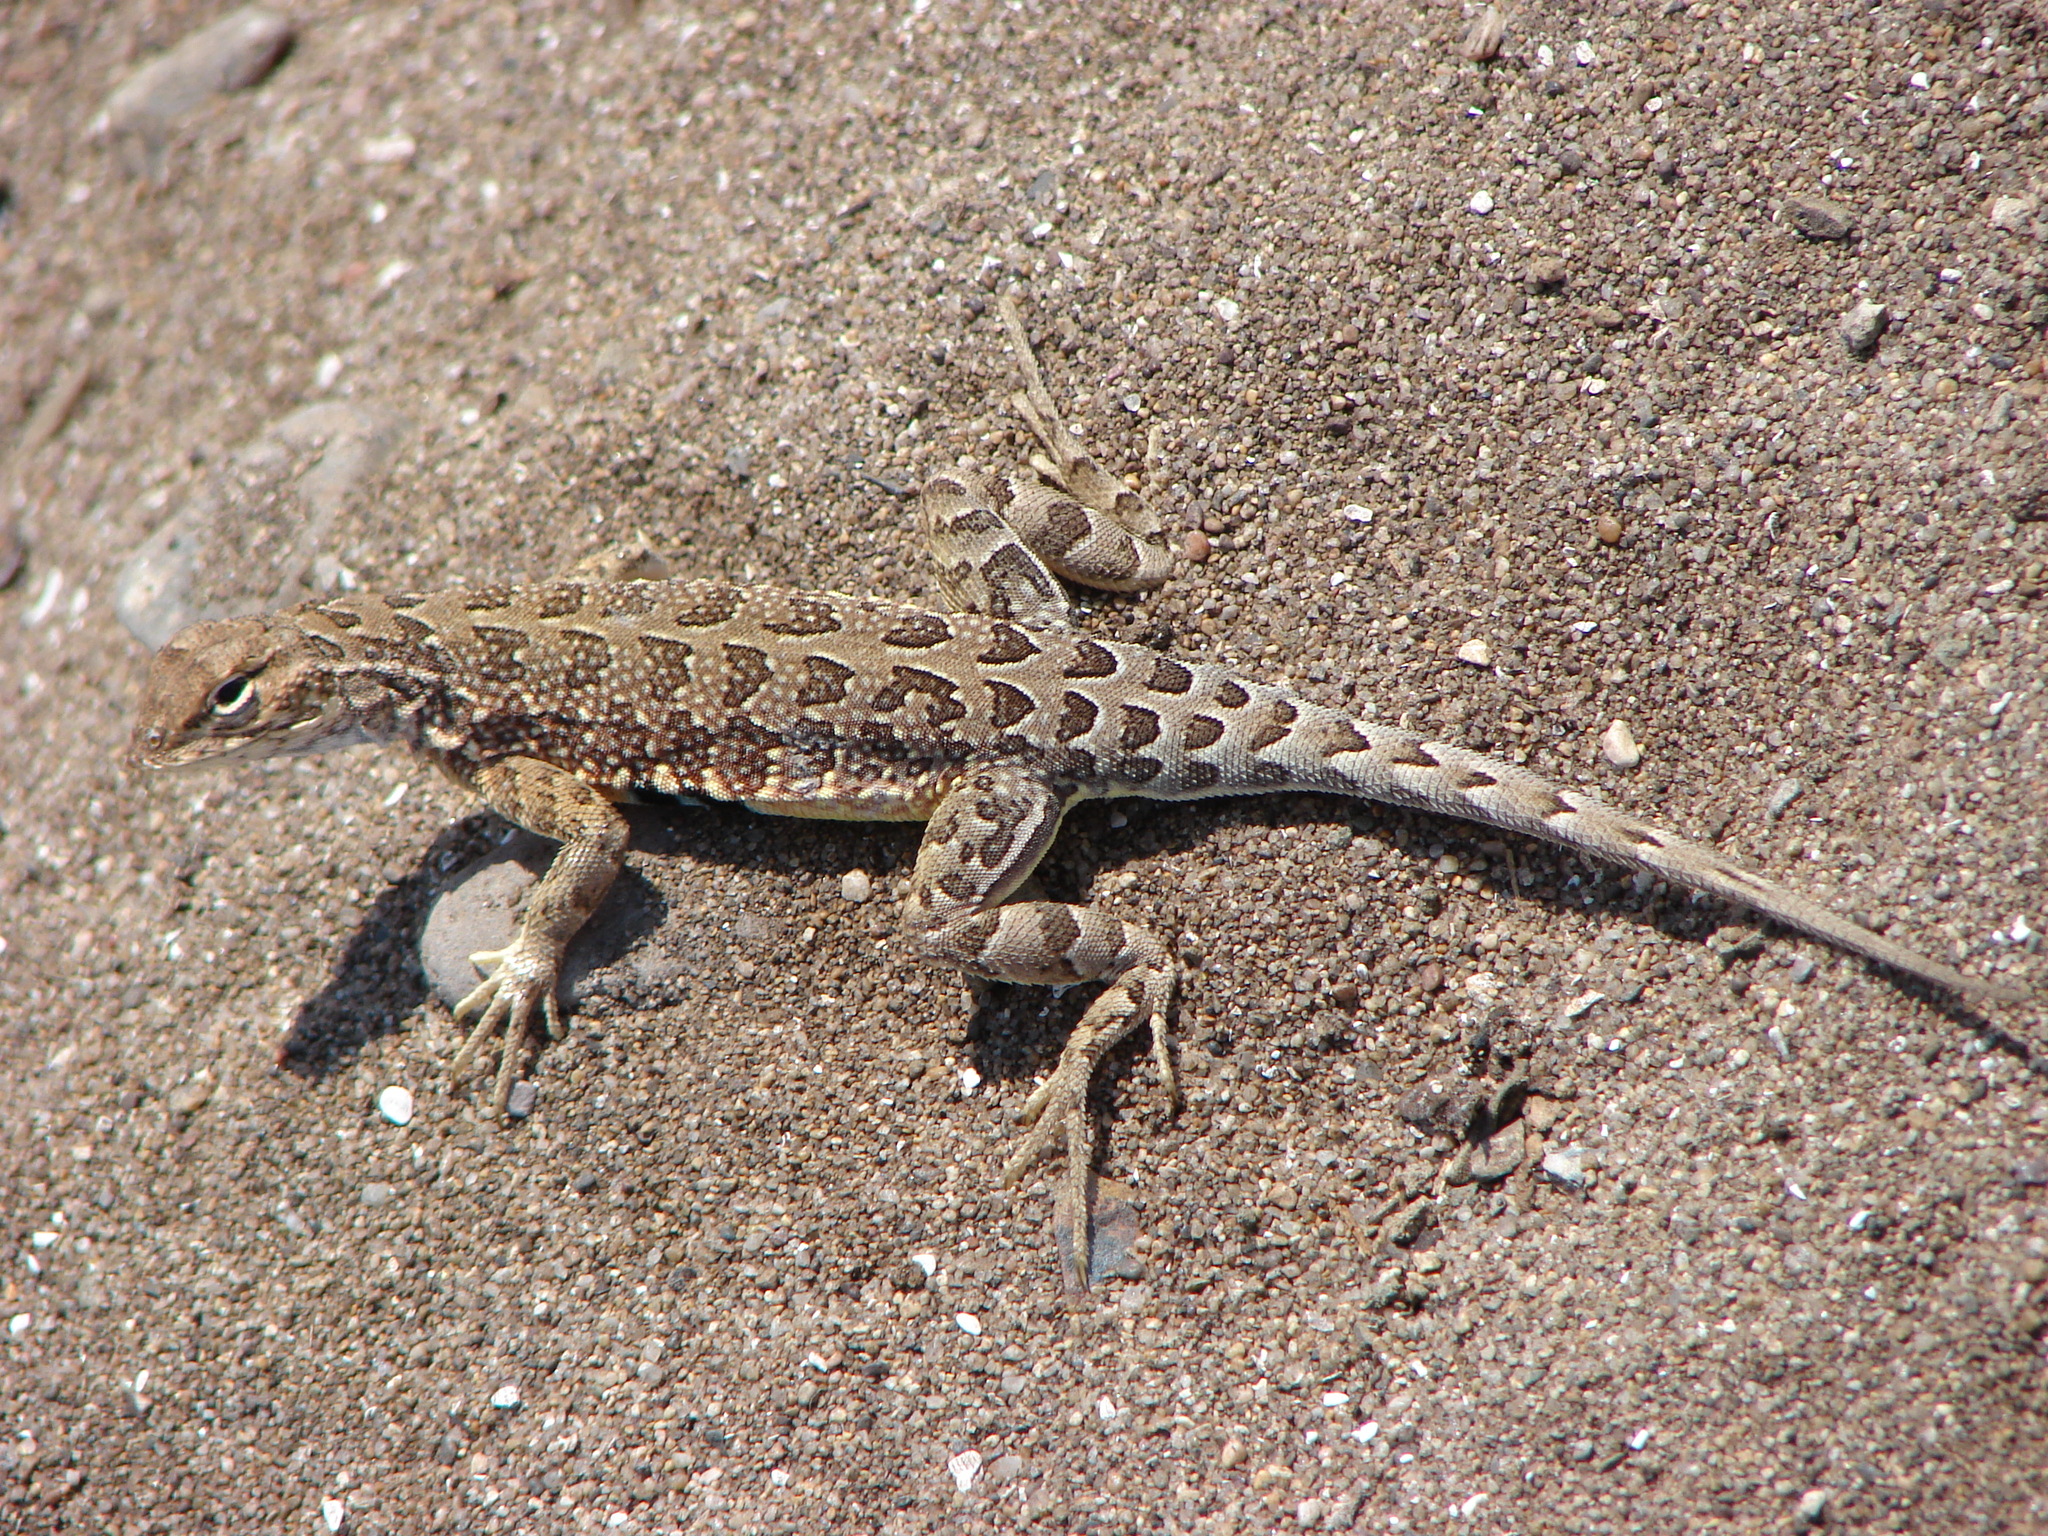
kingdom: Animalia
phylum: Chordata
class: Squamata
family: Phrynosomatidae
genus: Holbrookia
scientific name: Holbrookia elegans
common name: Elegant earless lizard
